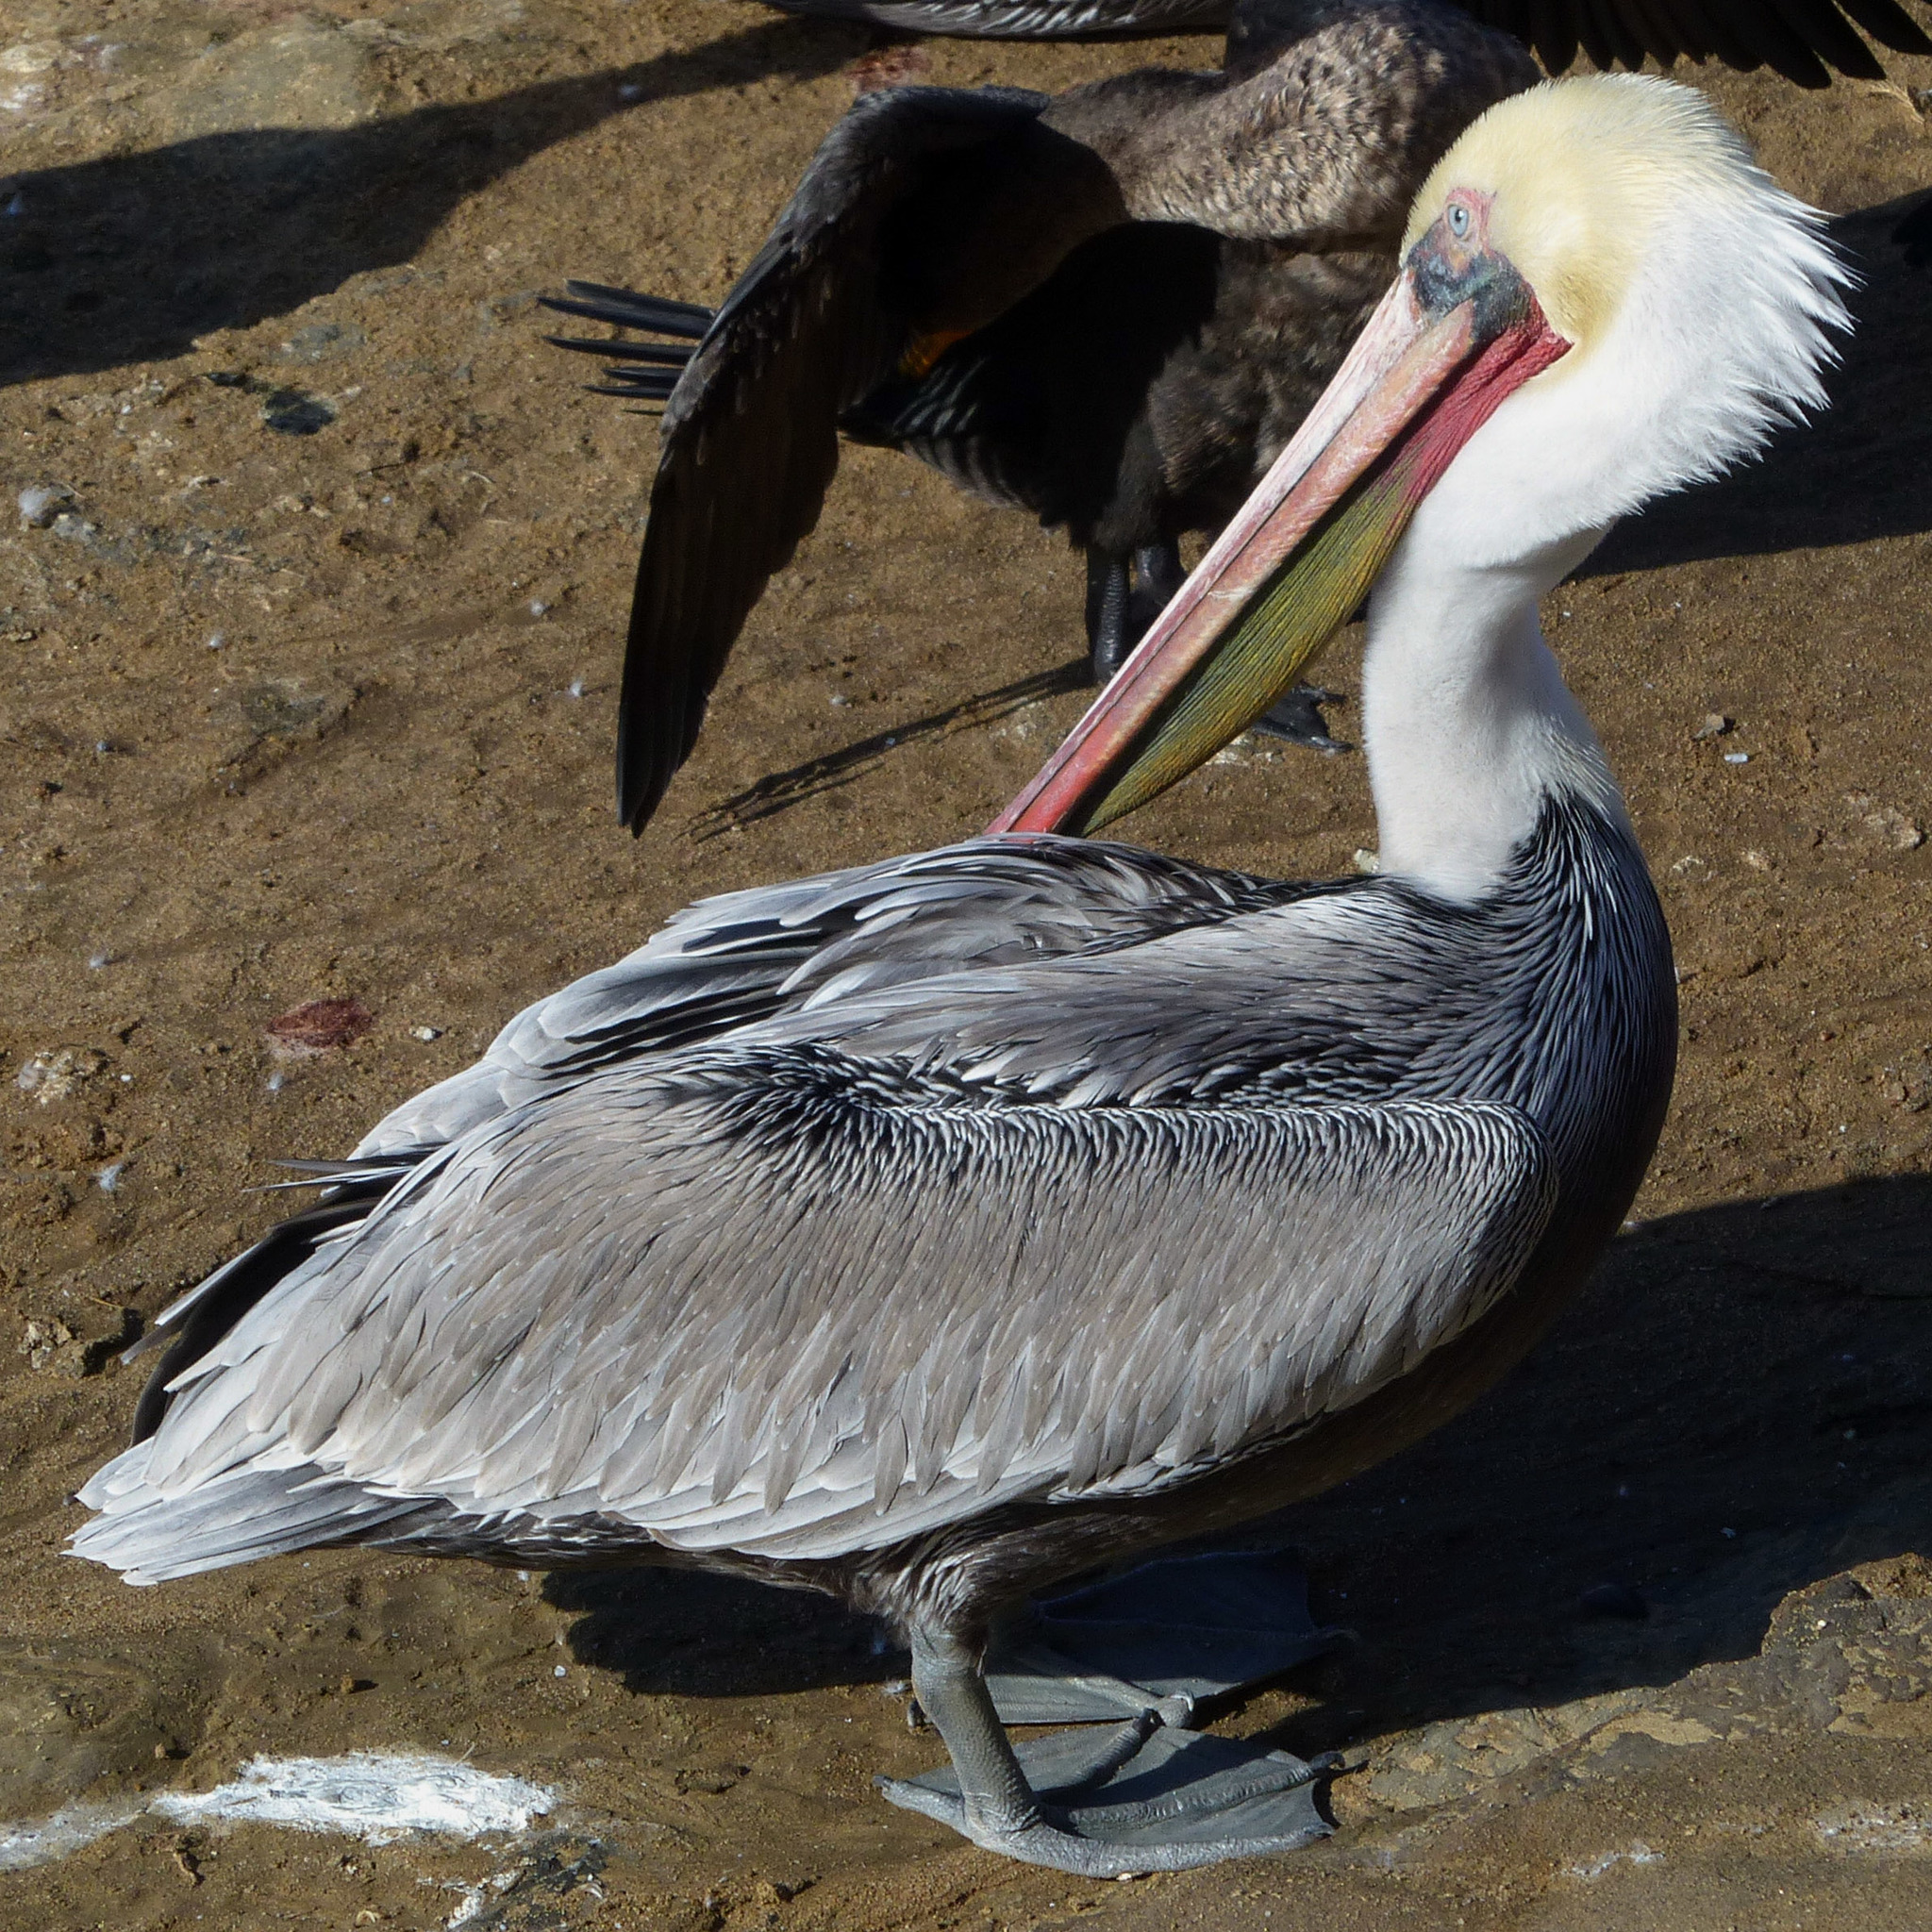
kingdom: Animalia
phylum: Chordata
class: Aves
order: Pelecaniformes
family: Pelecanidae
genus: Pelecanus
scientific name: Pelecanus occidentalis
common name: Brown pelican
